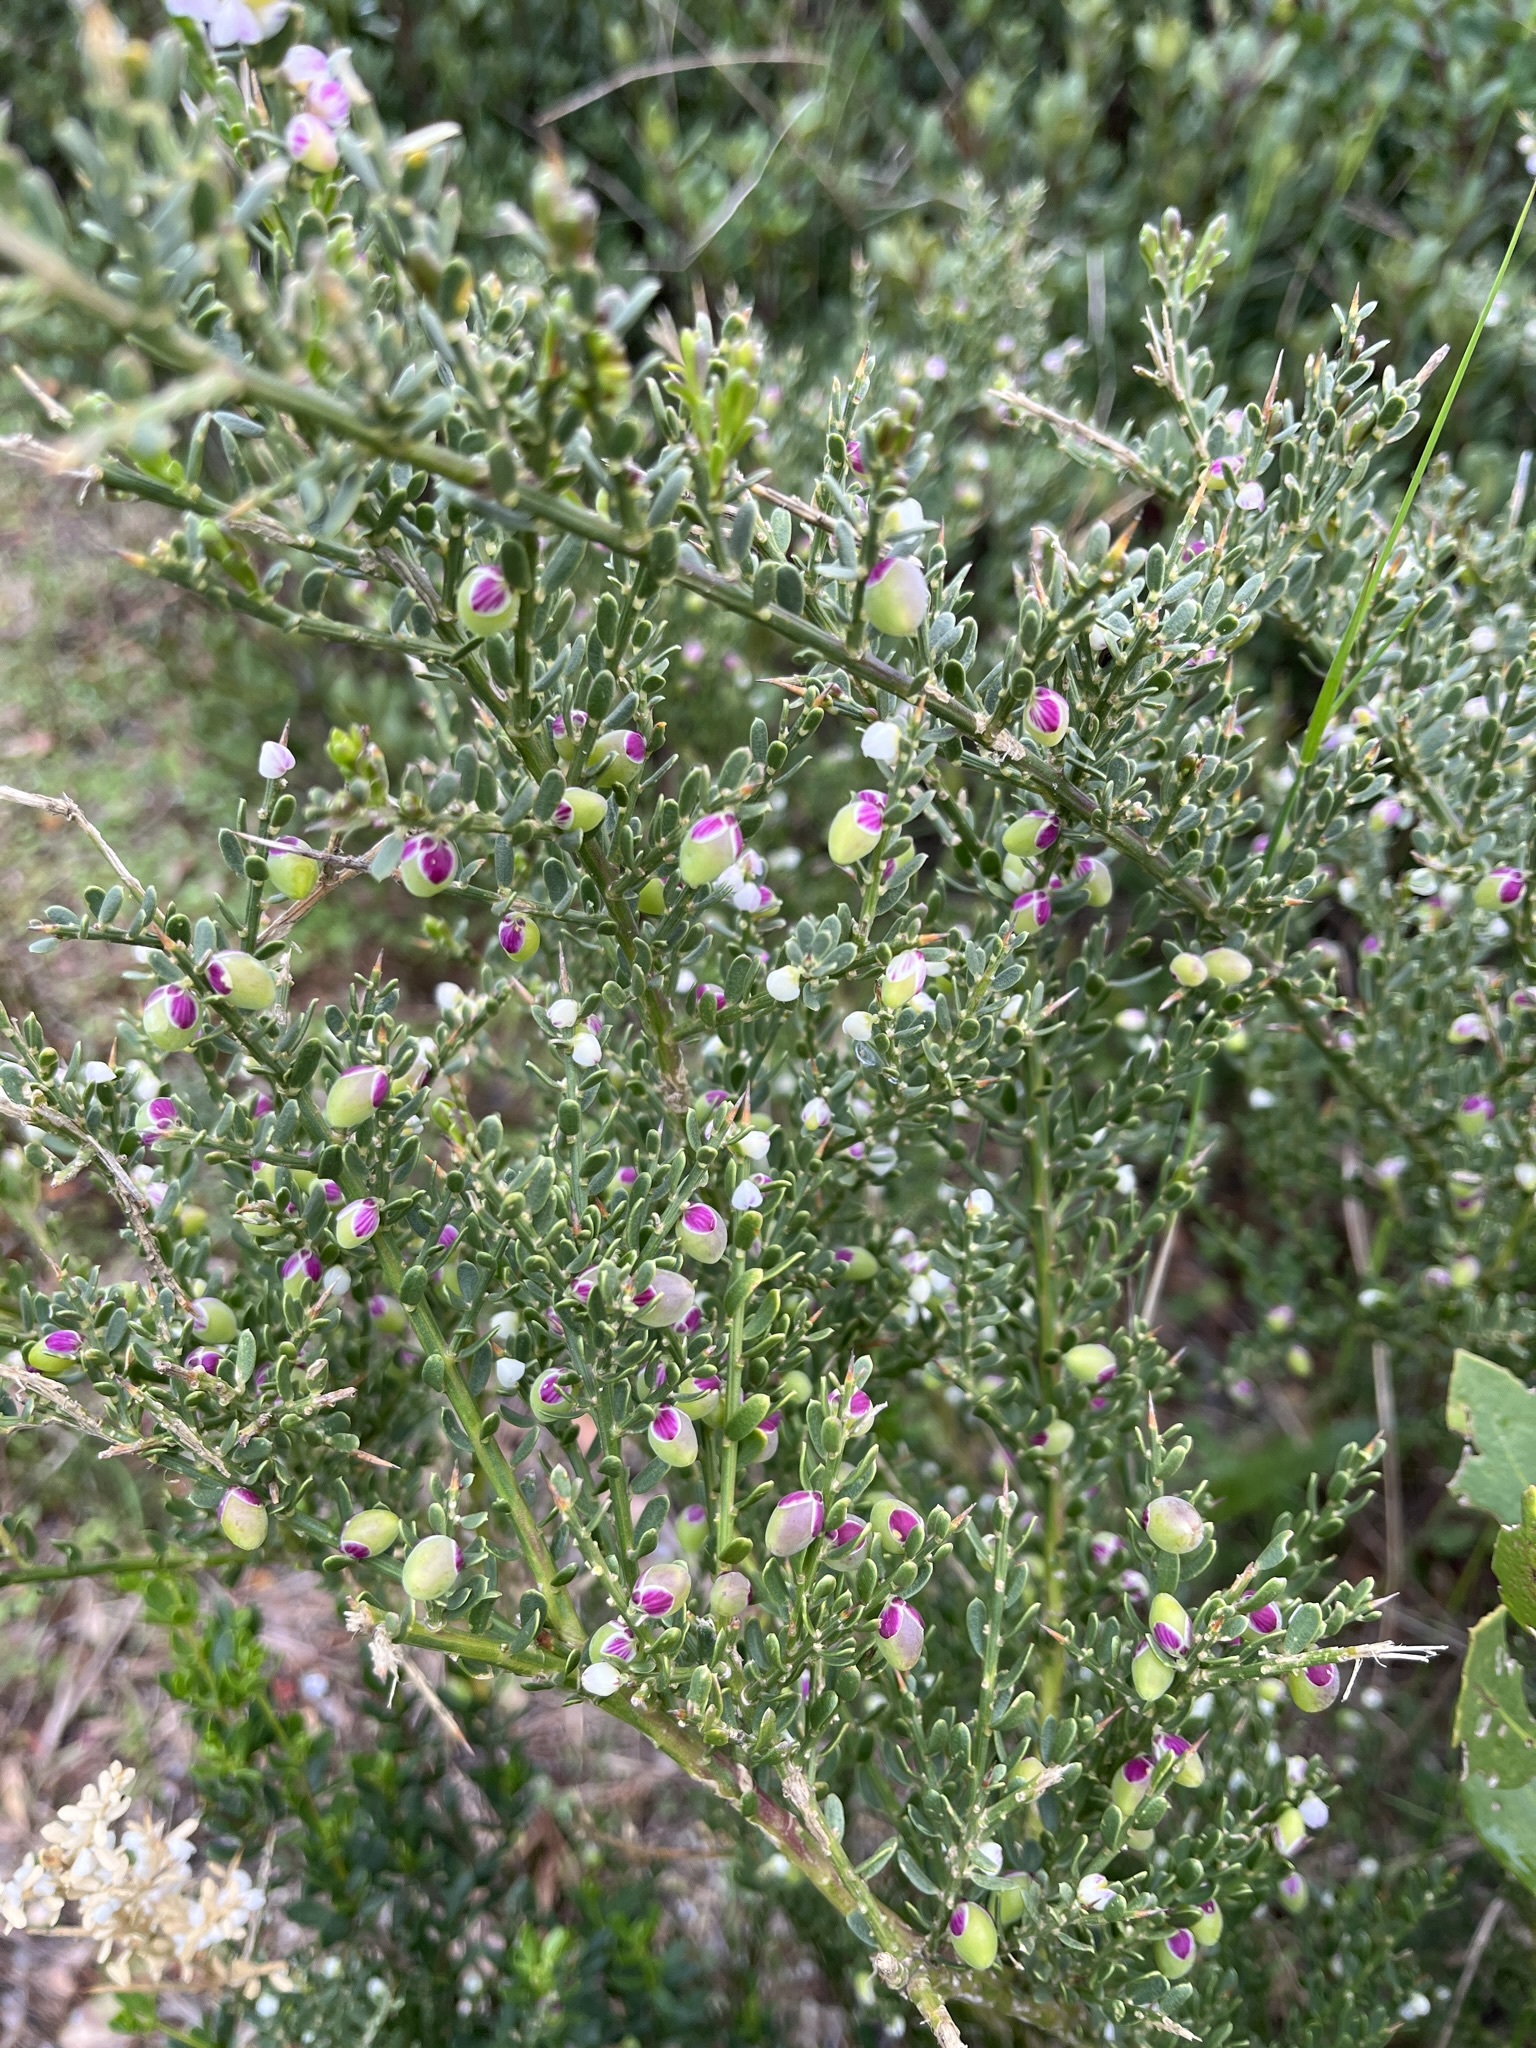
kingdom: Plantae
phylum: Tracheophyta
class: Magnoliopsida
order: Fabales
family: Polygalaceae
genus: Muraltia
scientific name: Muraltia spinosa
